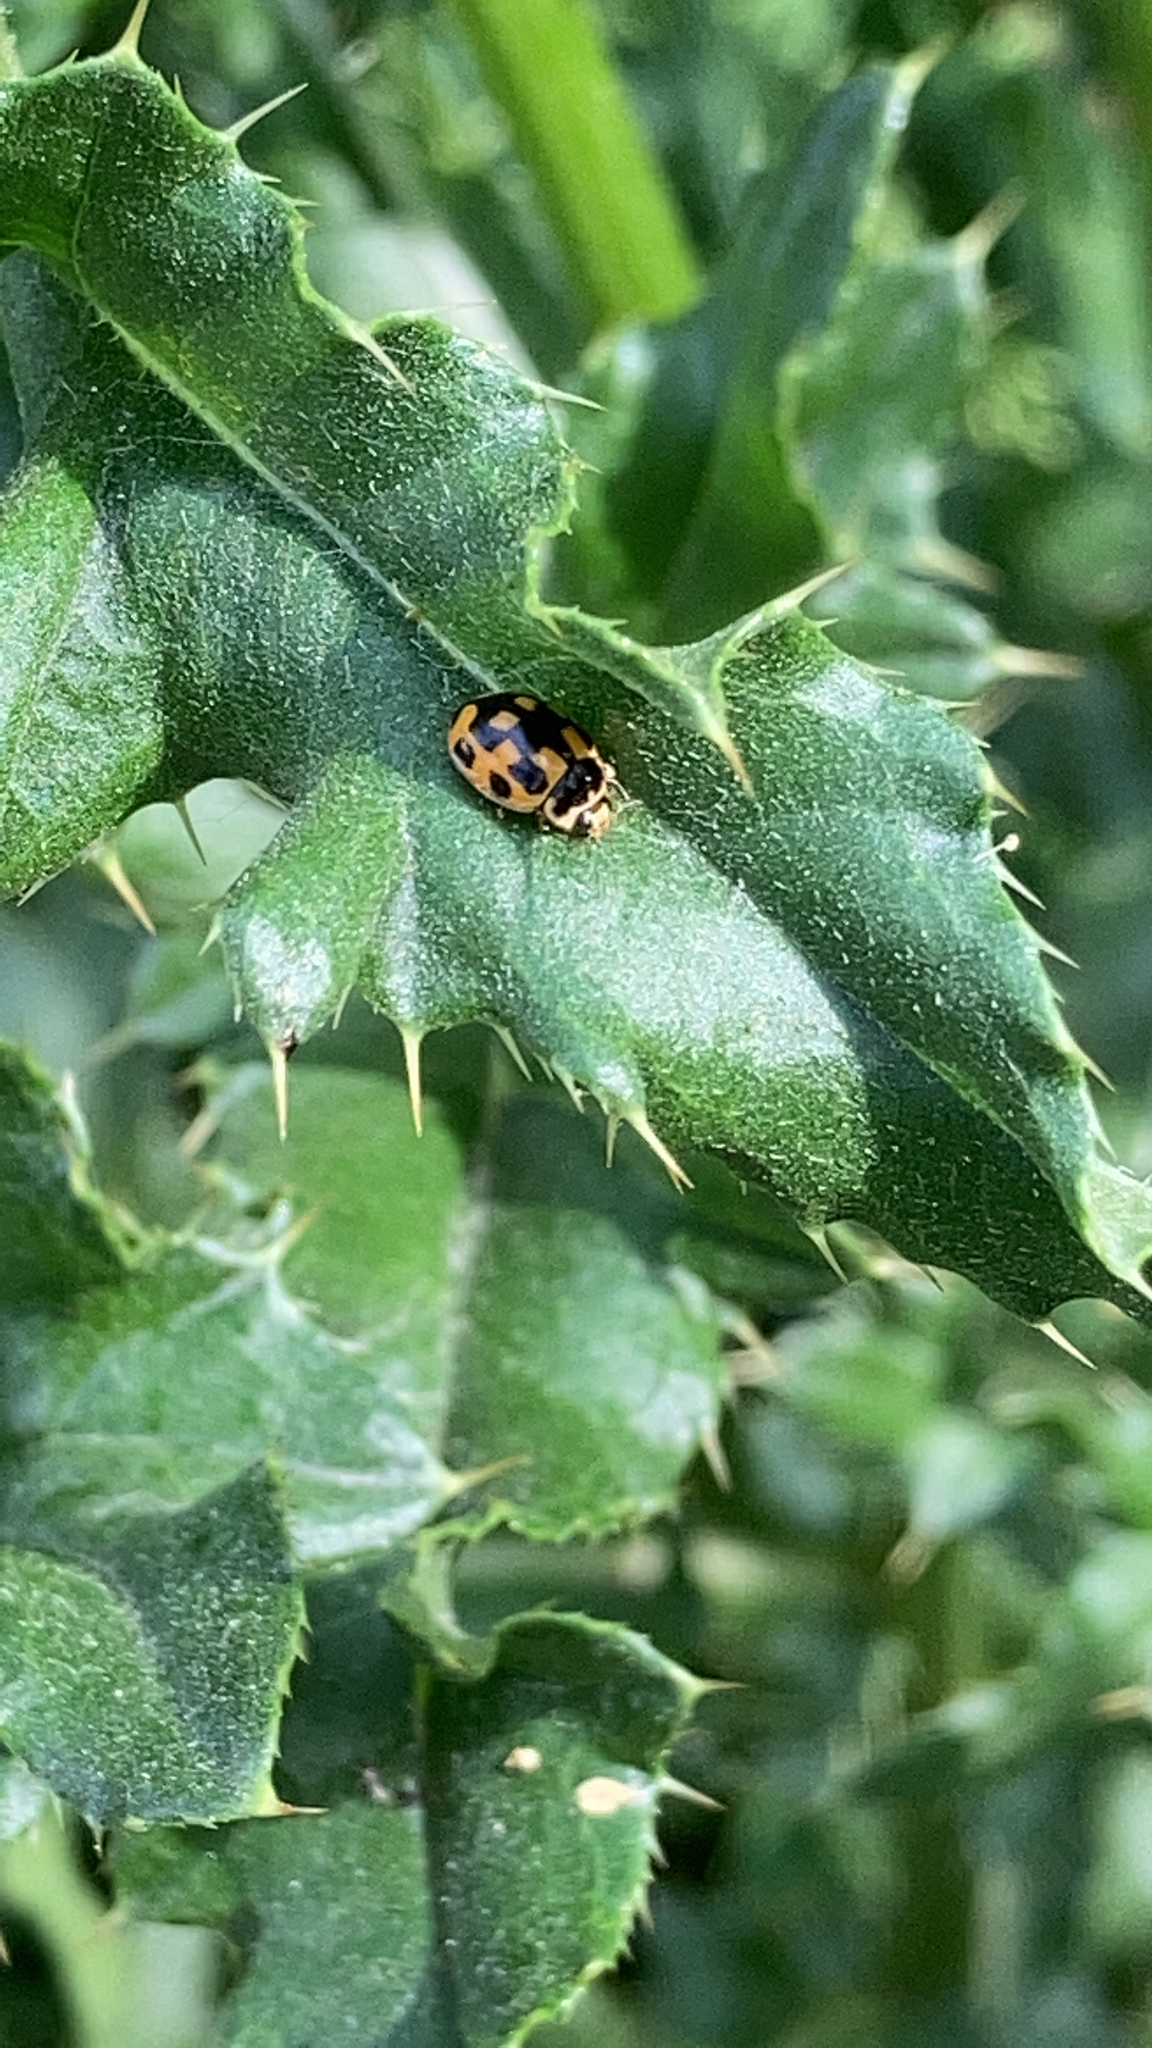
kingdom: Animalia
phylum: Arthropoda
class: Insecta
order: Coleoptera
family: Coccinellidae
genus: Propylaea
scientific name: Propylaea quatuordecimpunctata
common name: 14-spotted ladybird beetle
